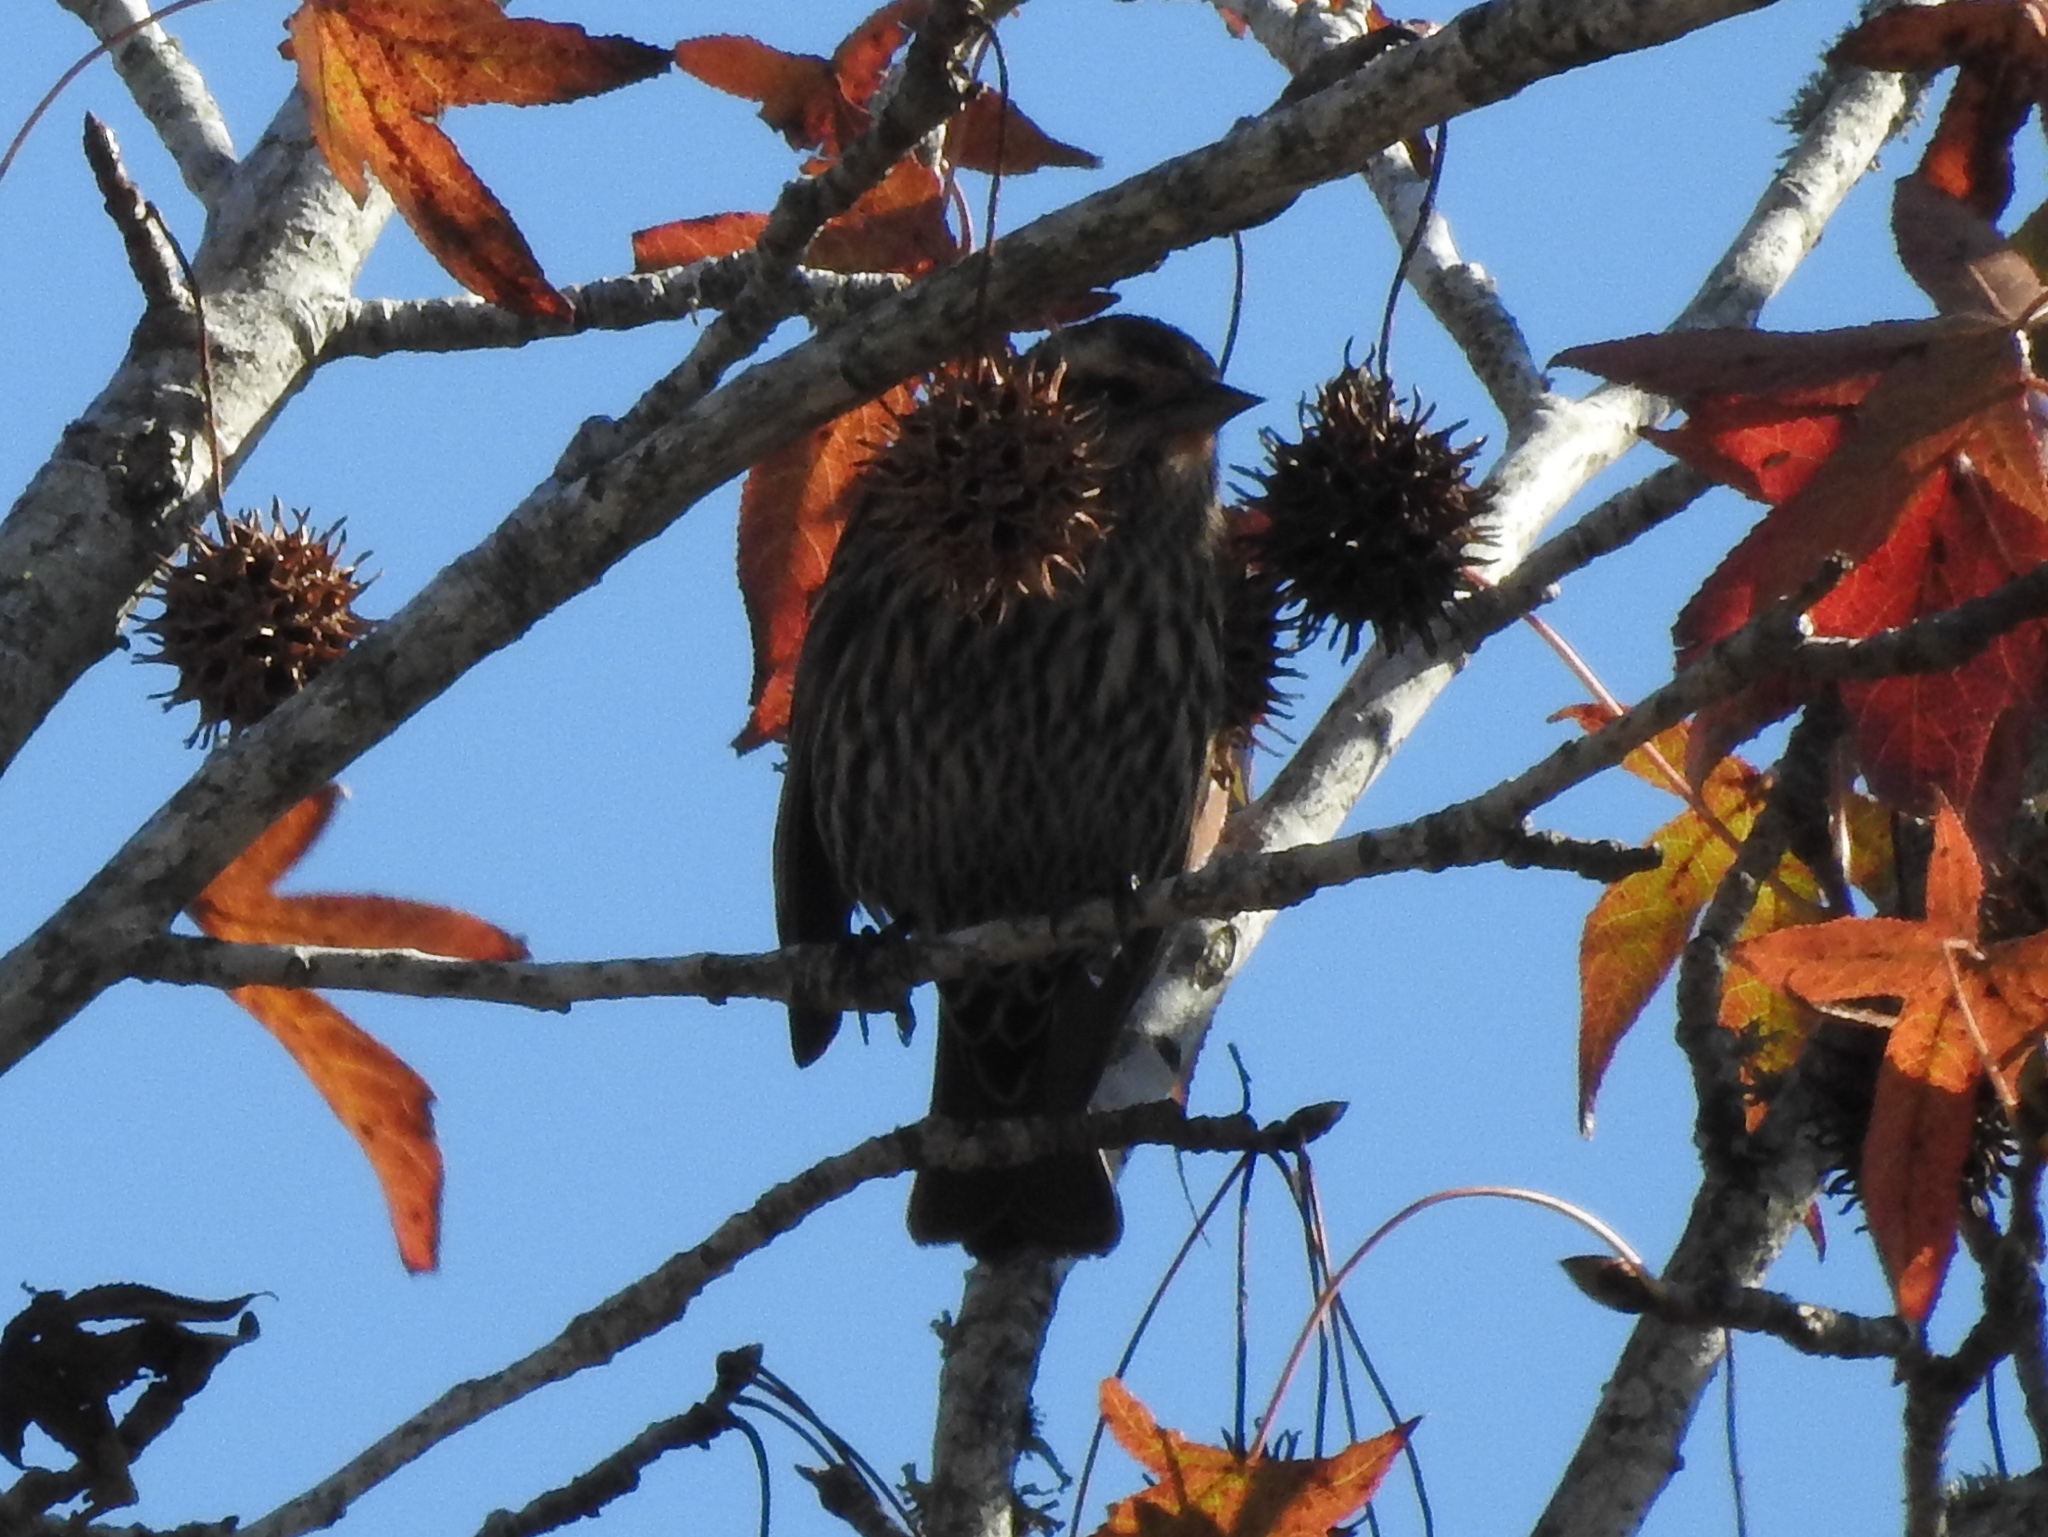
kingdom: Animalia
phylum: Chordata
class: Aves
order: Passeriformes
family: Icteridae
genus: Agelaius
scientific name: Agelaius phoeniceus
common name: Red-winged blackbird
